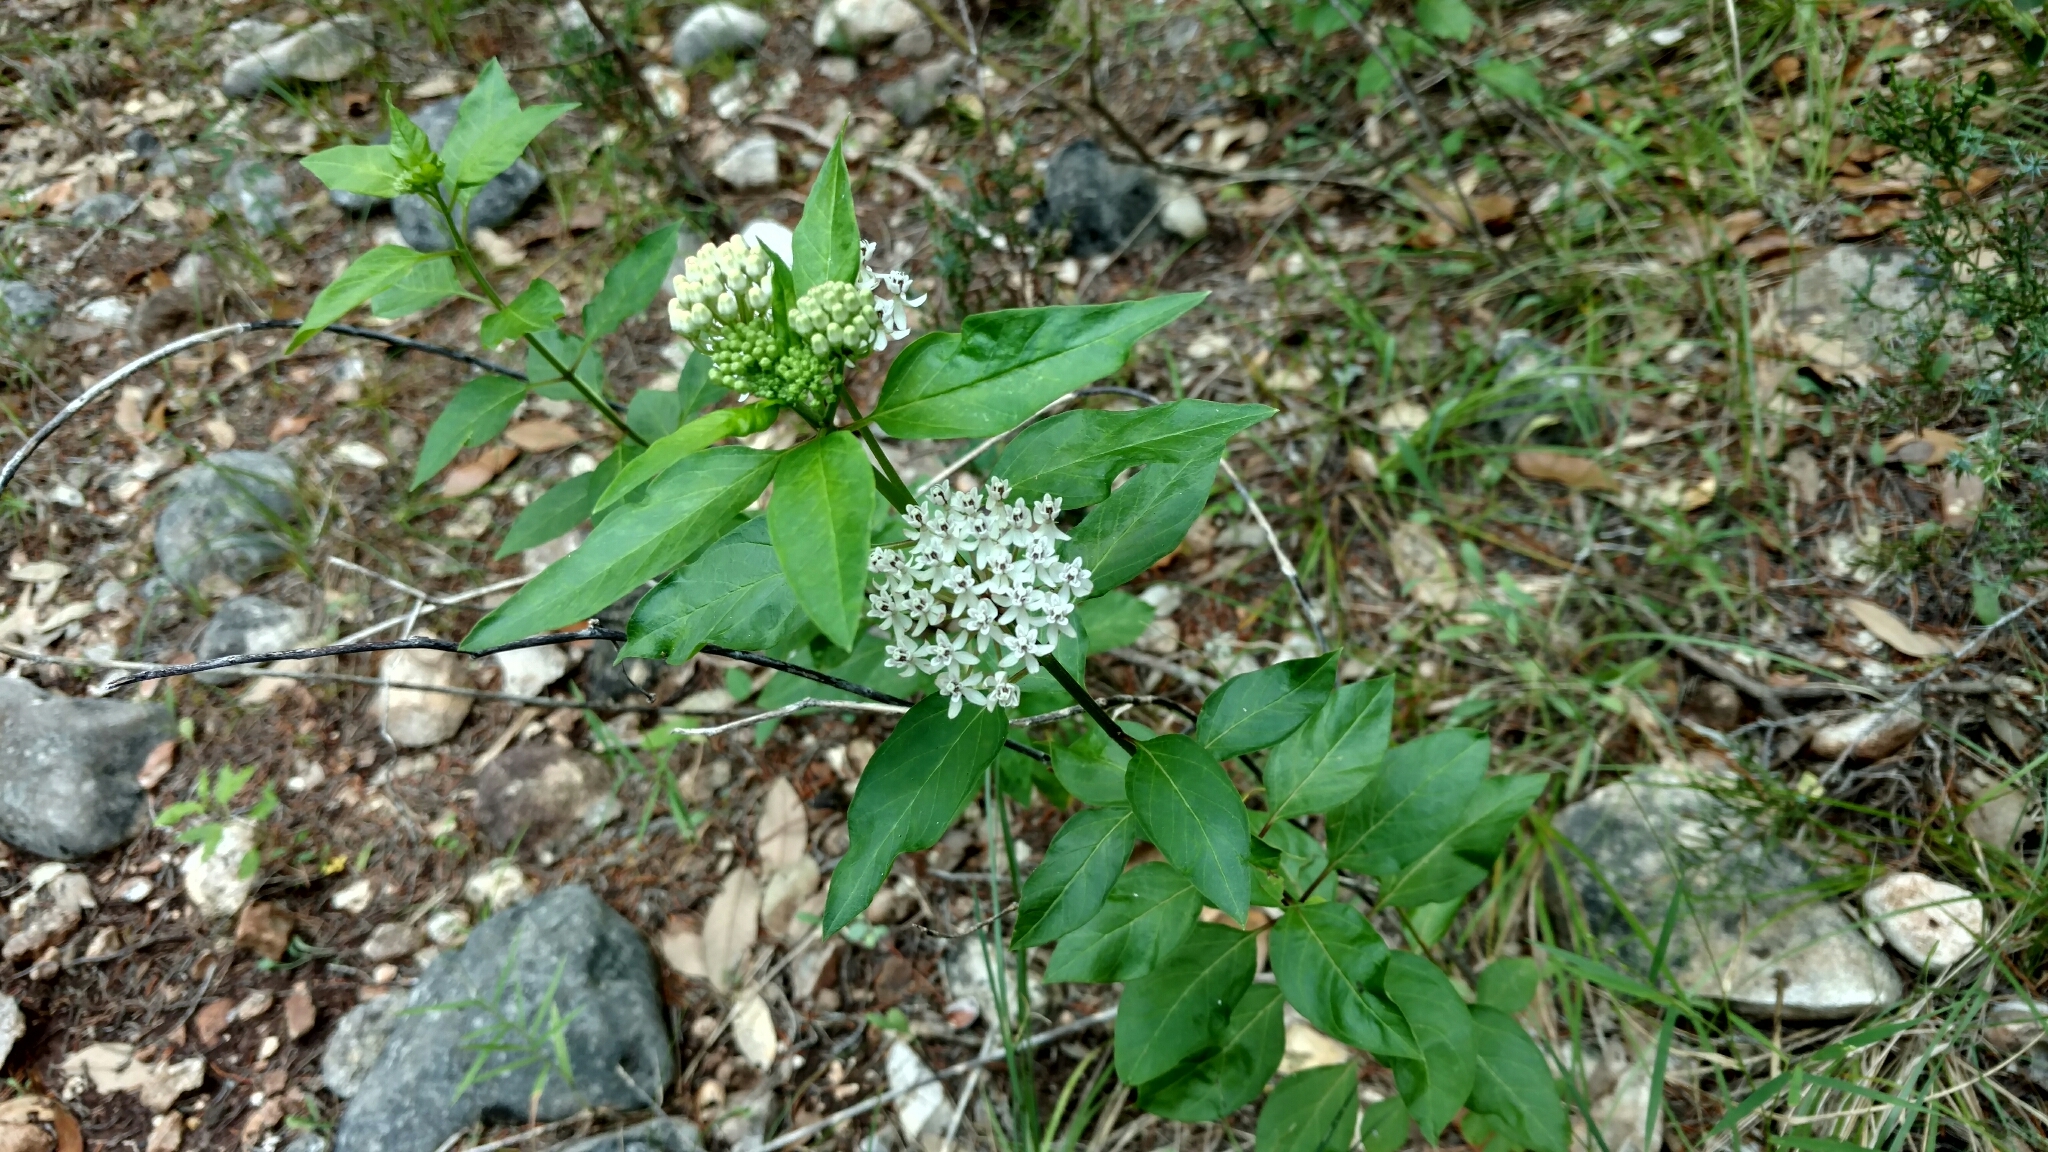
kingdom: Plantae
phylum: Tracheophyta
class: Magnoliopsida
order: Gentianales
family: Apocynaceae
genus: Asclepias
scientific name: Asclepias texana
